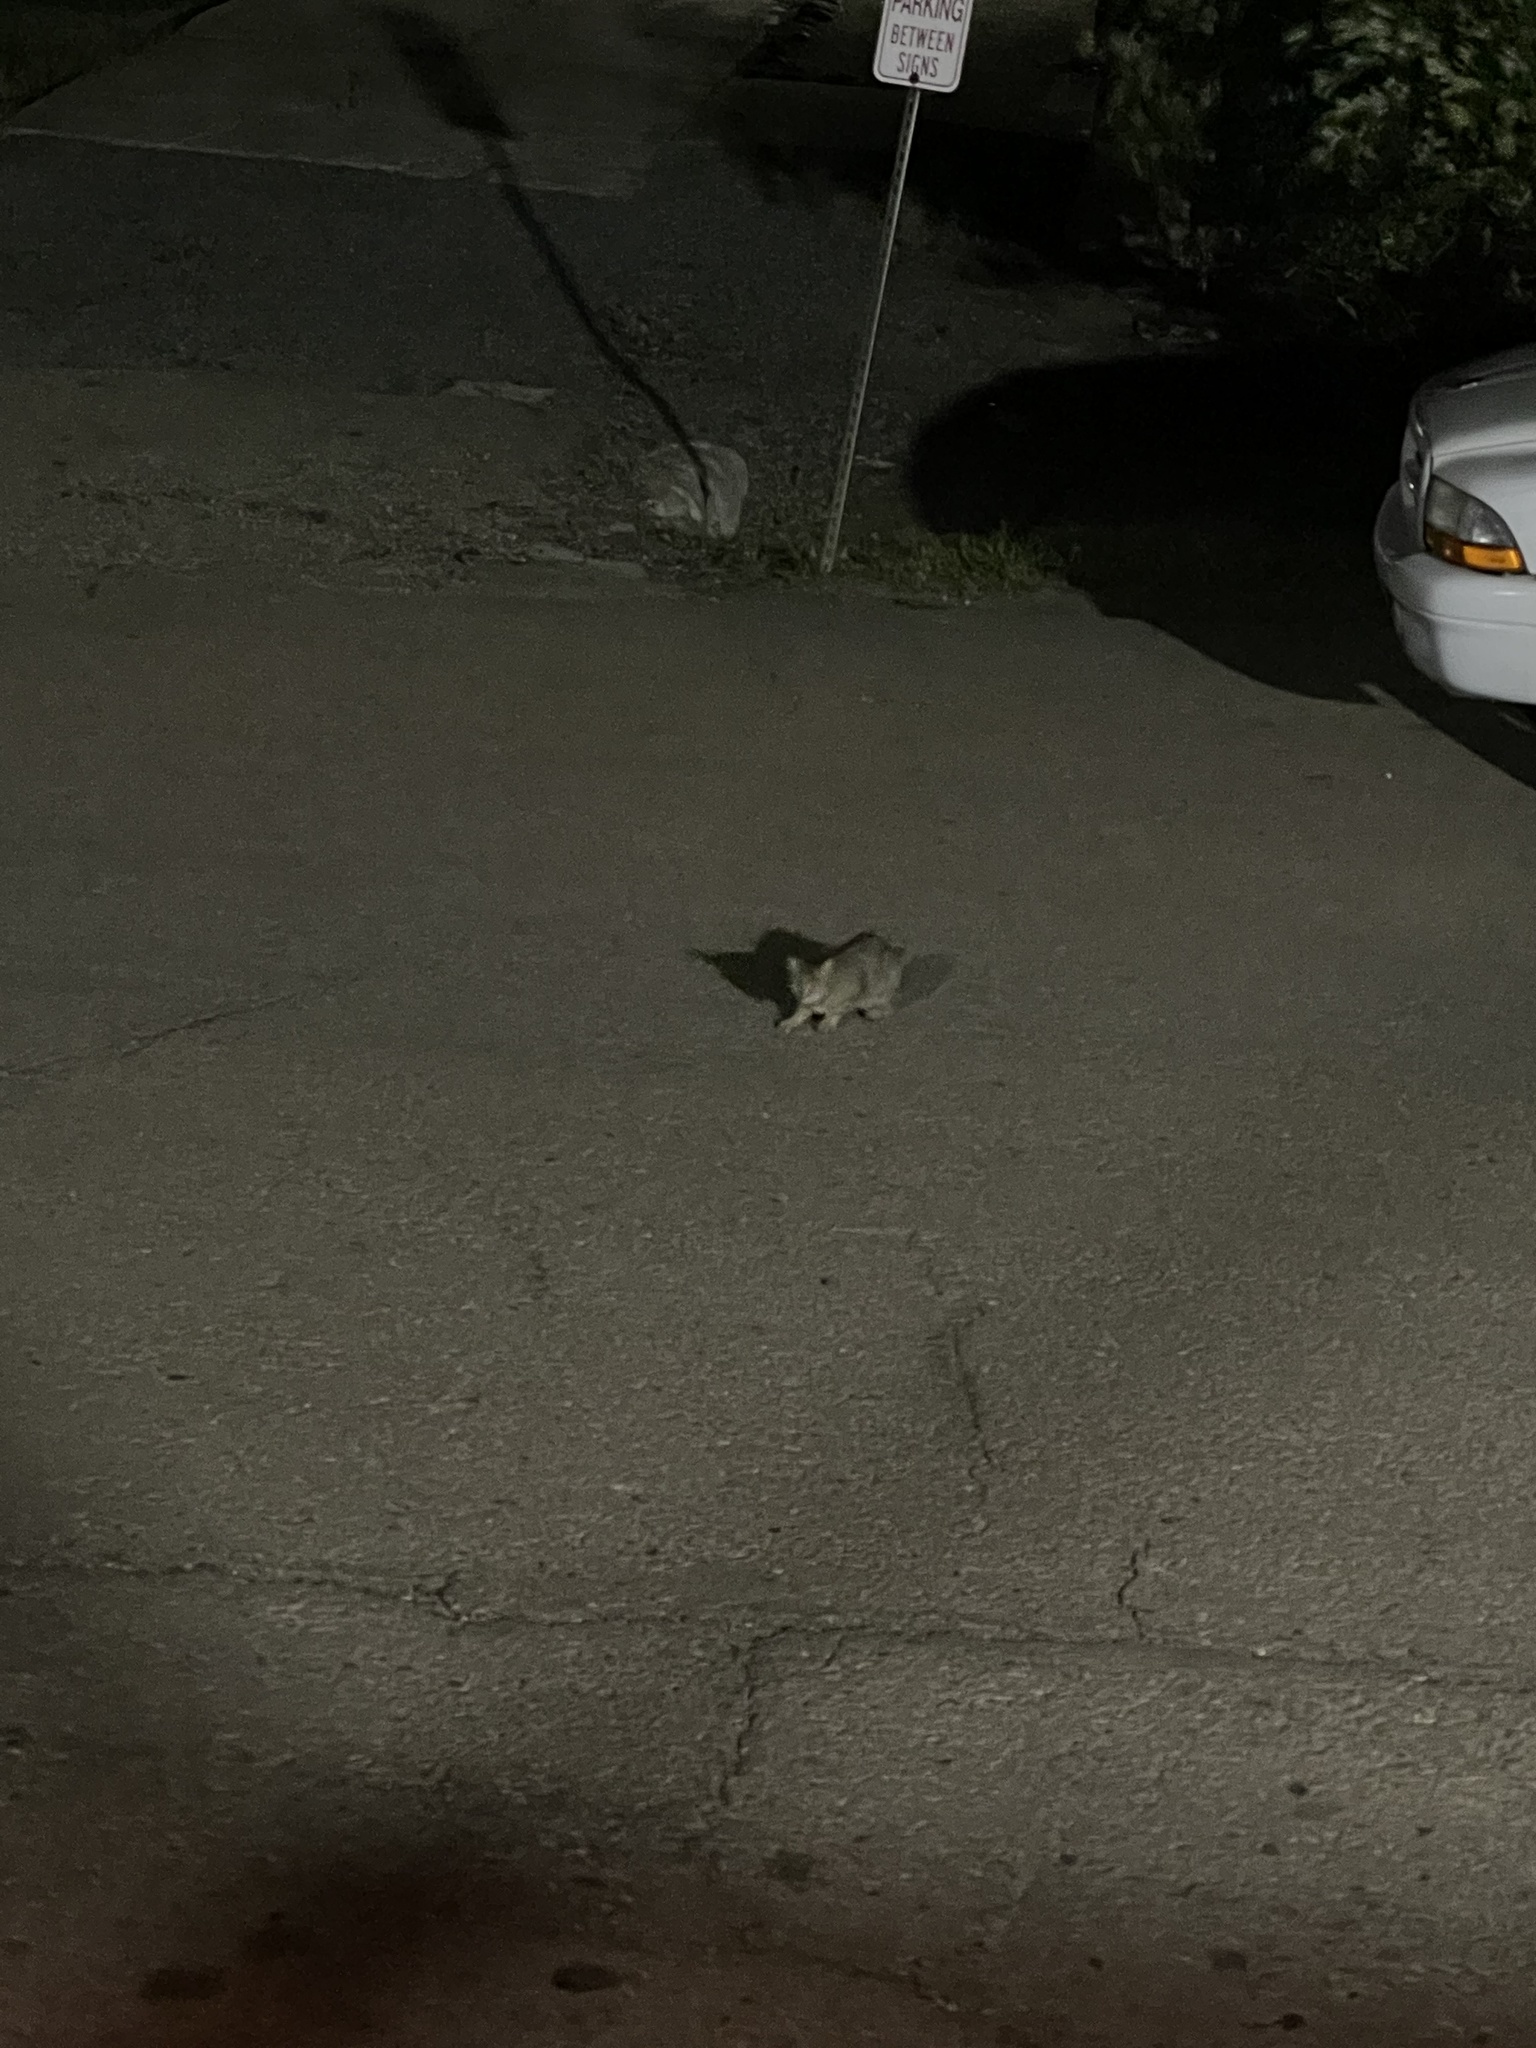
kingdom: Animalia
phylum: Chordata
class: Mammalia
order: Carnivora
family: Felidae
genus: Felis
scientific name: Felis catus
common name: Domestic cat
